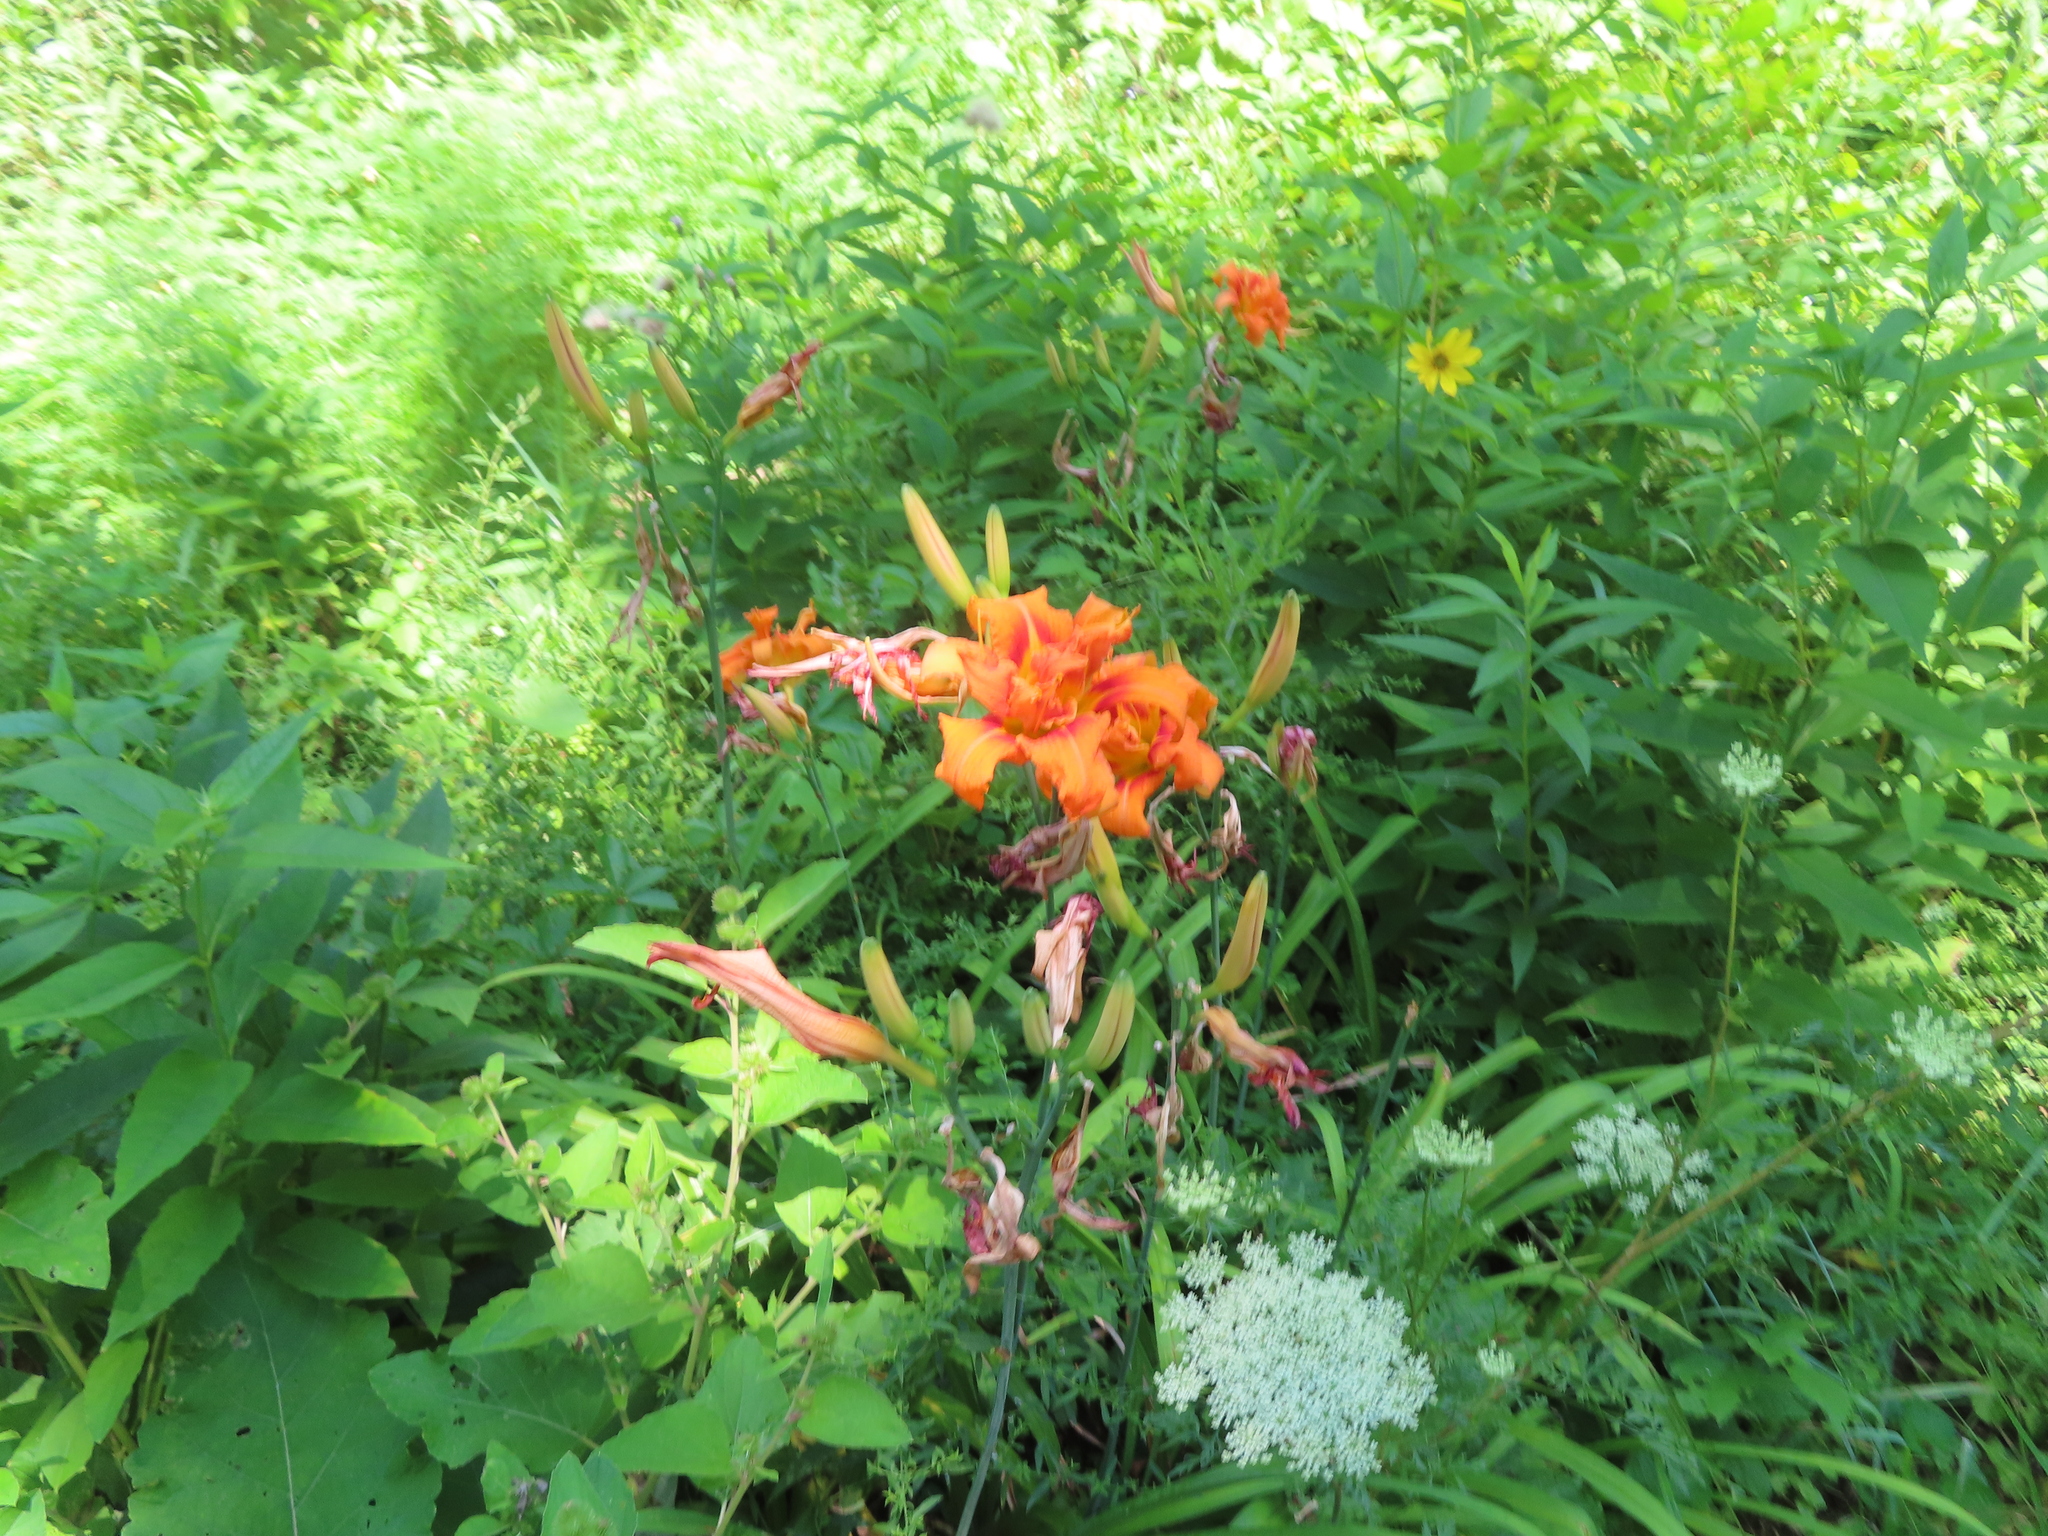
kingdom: Plantae
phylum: Tracheophyta
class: Liliopsida
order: Asparagales
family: Asphodelaceae
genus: Hemerocallis
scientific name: Hemerocallis fulva
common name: Orange day-lily
